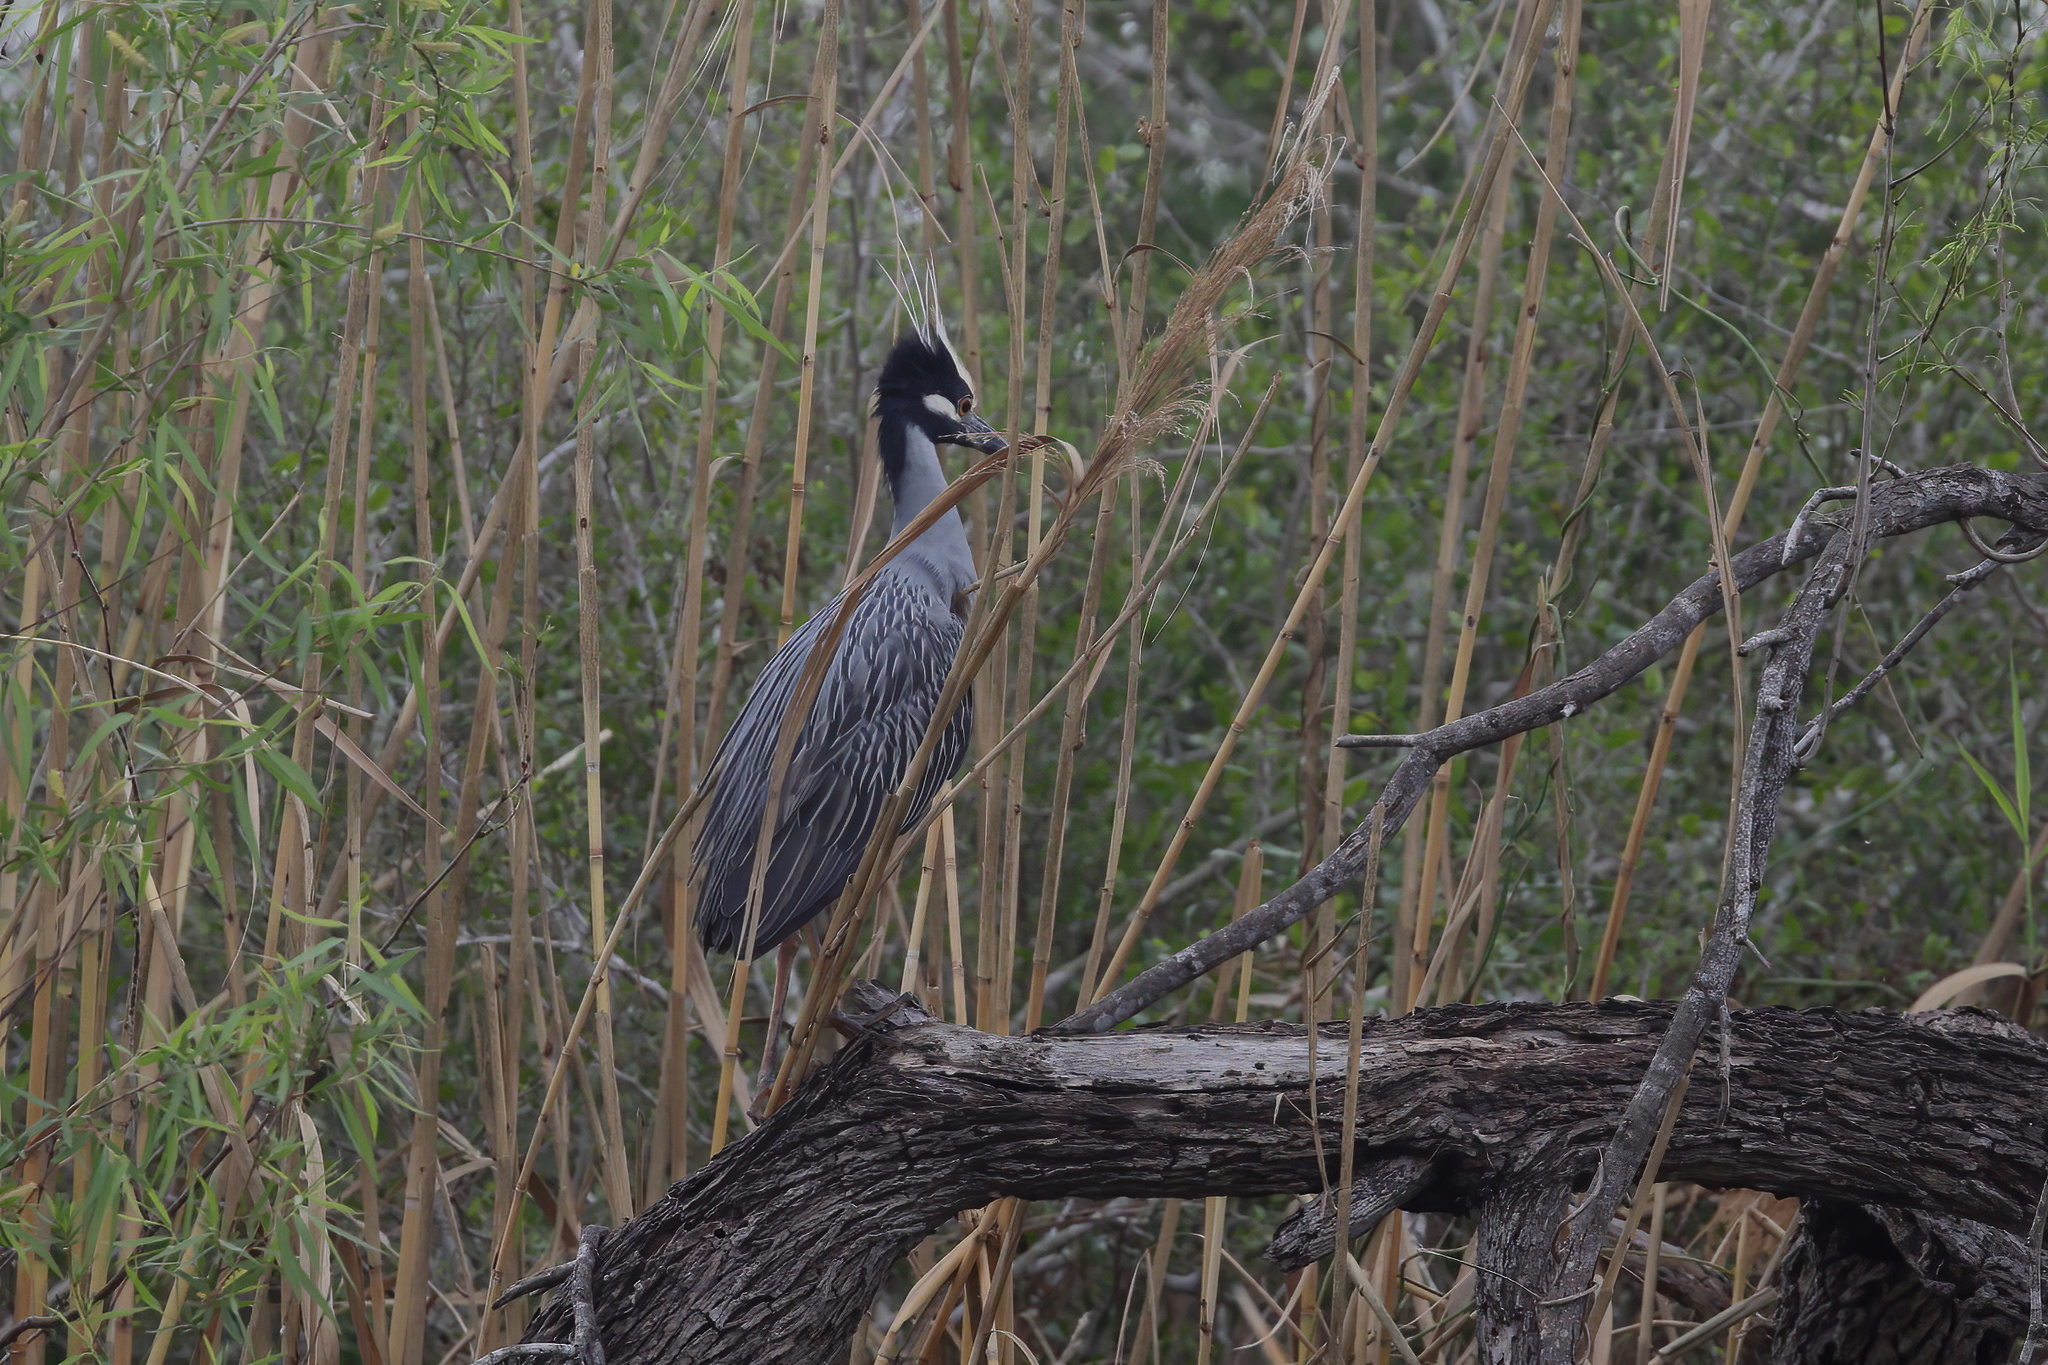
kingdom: Animalia
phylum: Chordata
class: Aves
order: Pelecaniformes
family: Ardeidae
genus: Nyctanassa
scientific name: Nyctanassa violacea
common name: Yellow-crowned night heron
